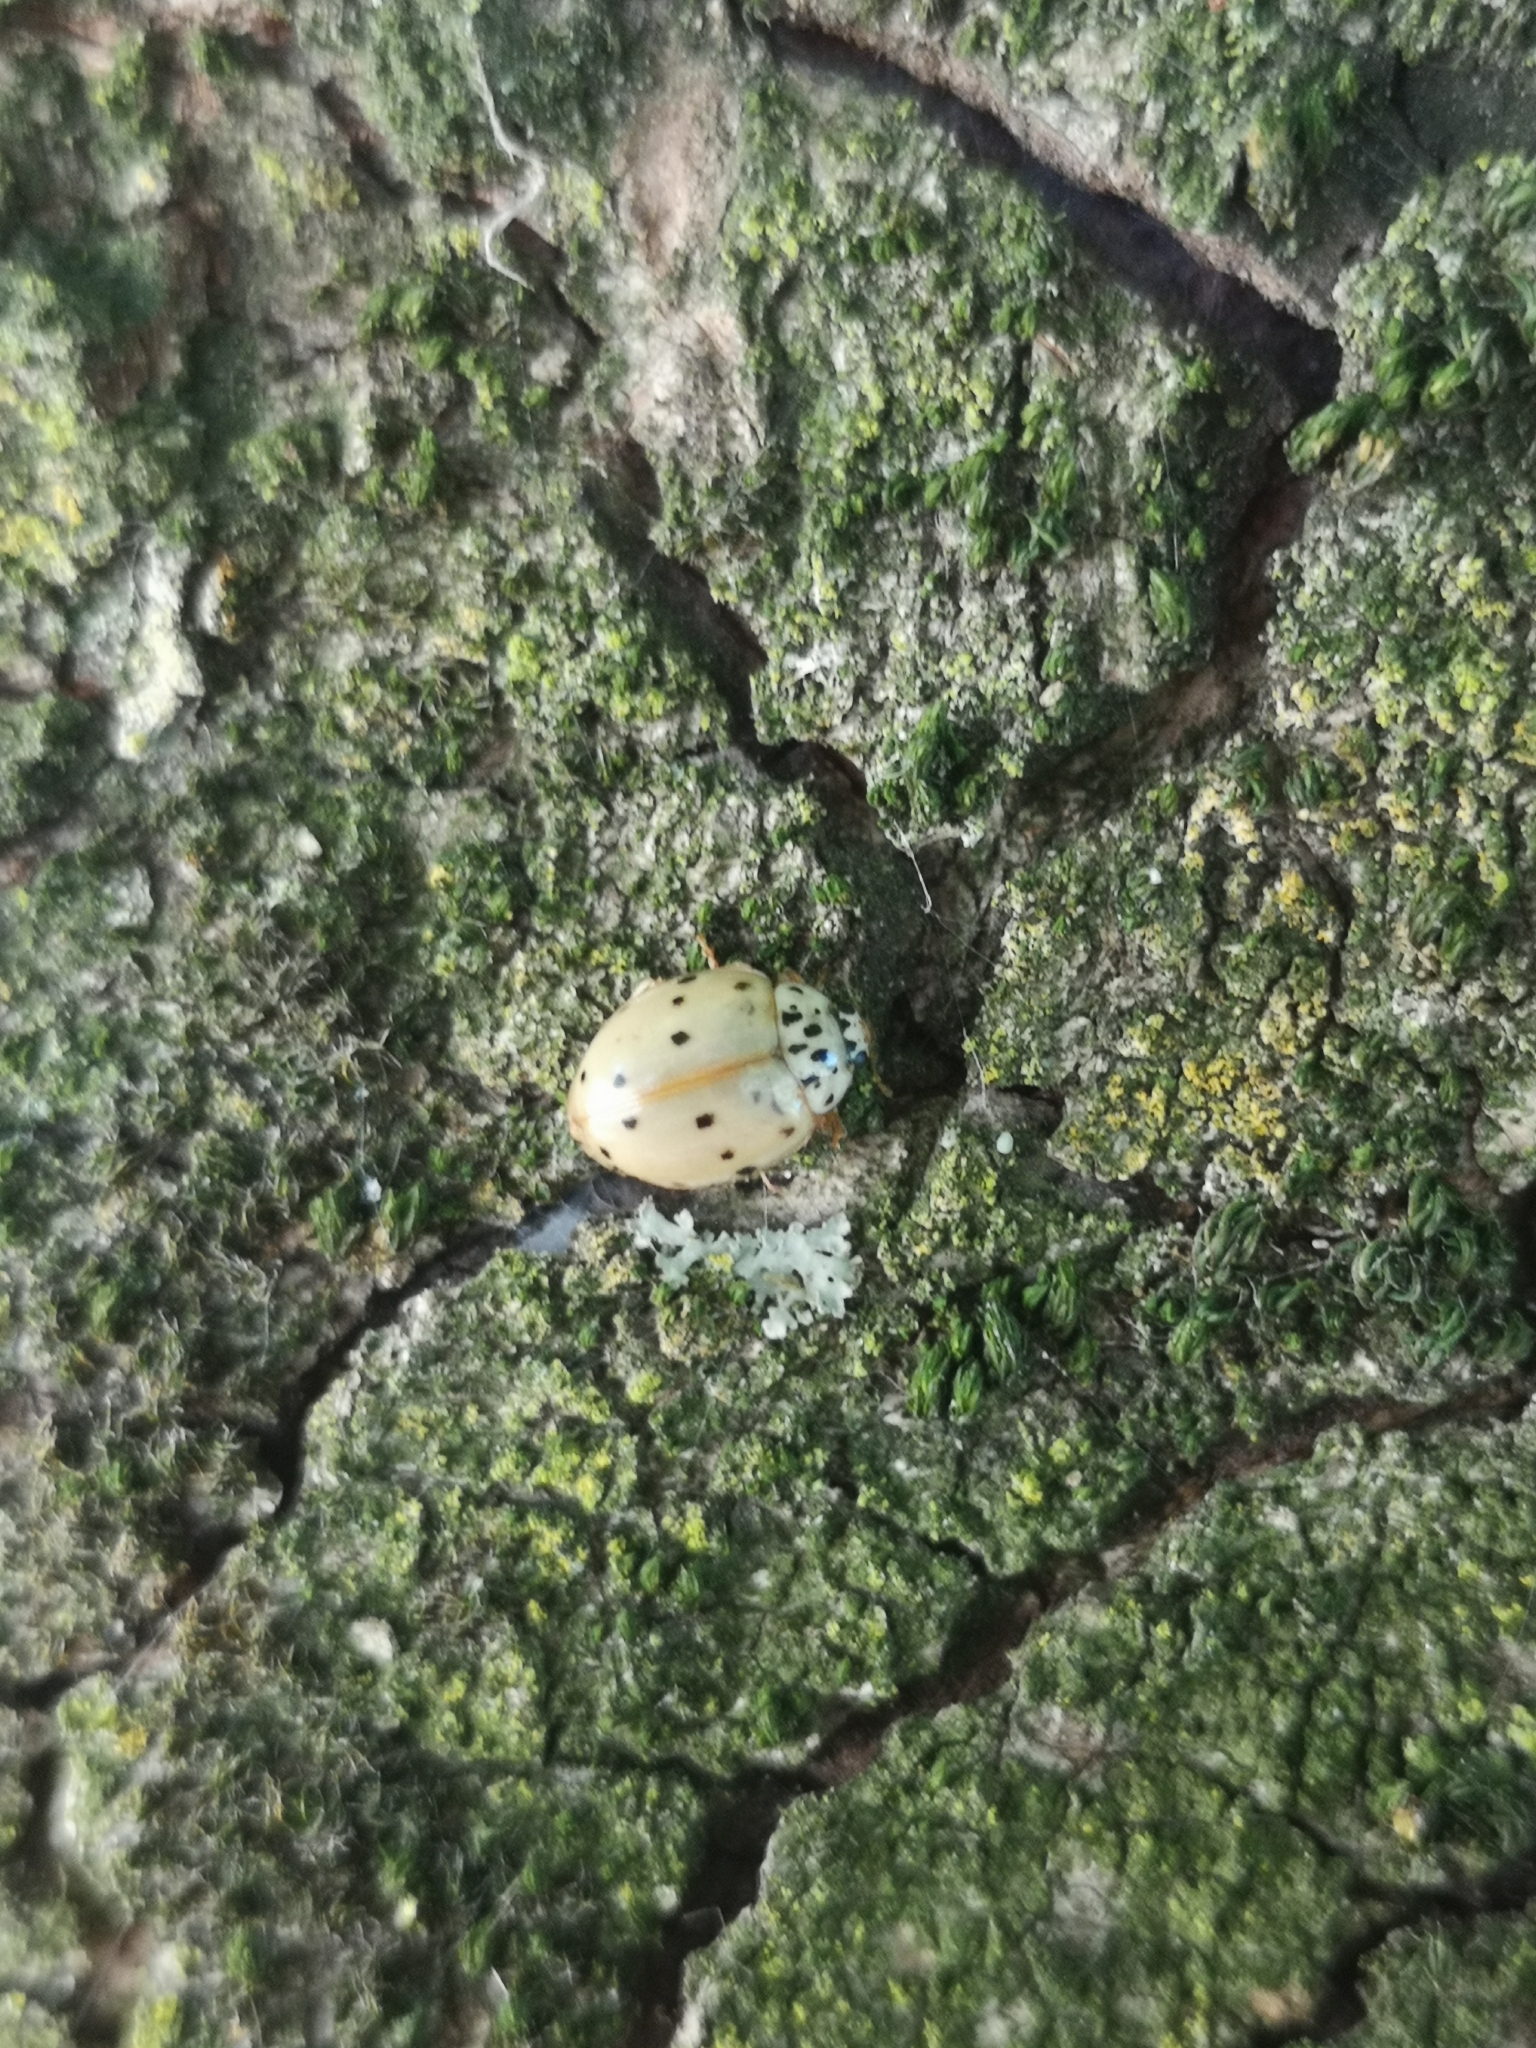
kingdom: Animalia
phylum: Arthropoda
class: Insecta
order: Coleoptera
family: Coccinellidae
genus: Harmonia
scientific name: Harmonia quadripunctata
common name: Cream-streaked ladybird
